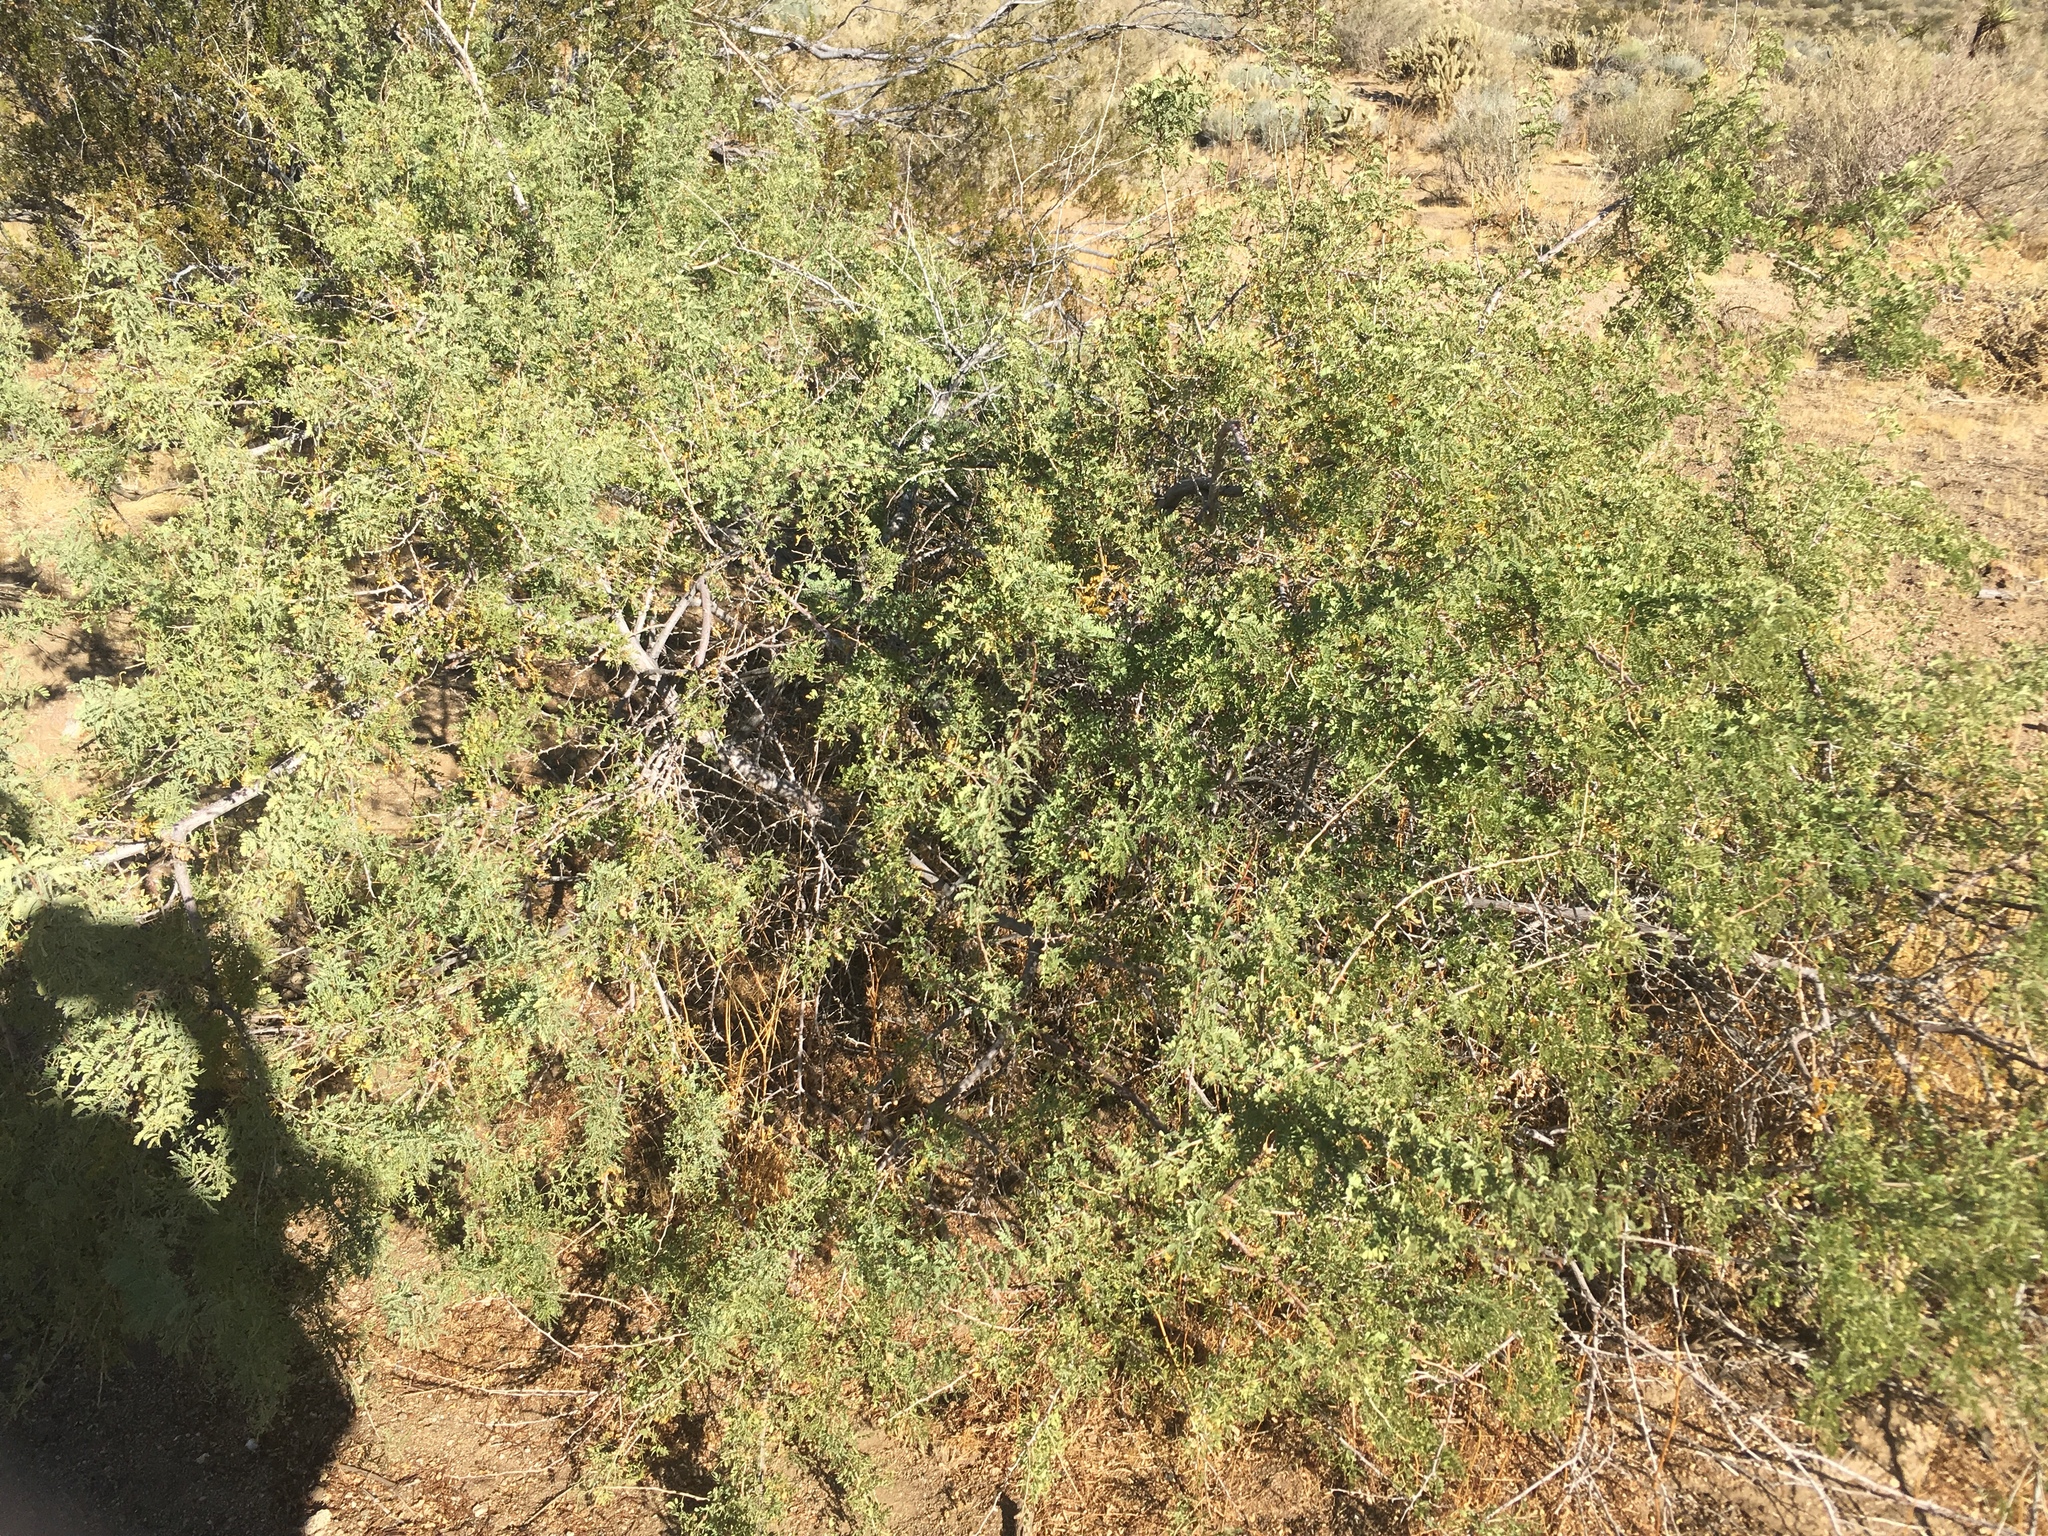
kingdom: Plantae
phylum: Tracheophyta
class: Magnoliopsida
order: Fabales
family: Fabaceae
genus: Senegalia
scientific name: Senegalia greggii
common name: Texas-mimosa
